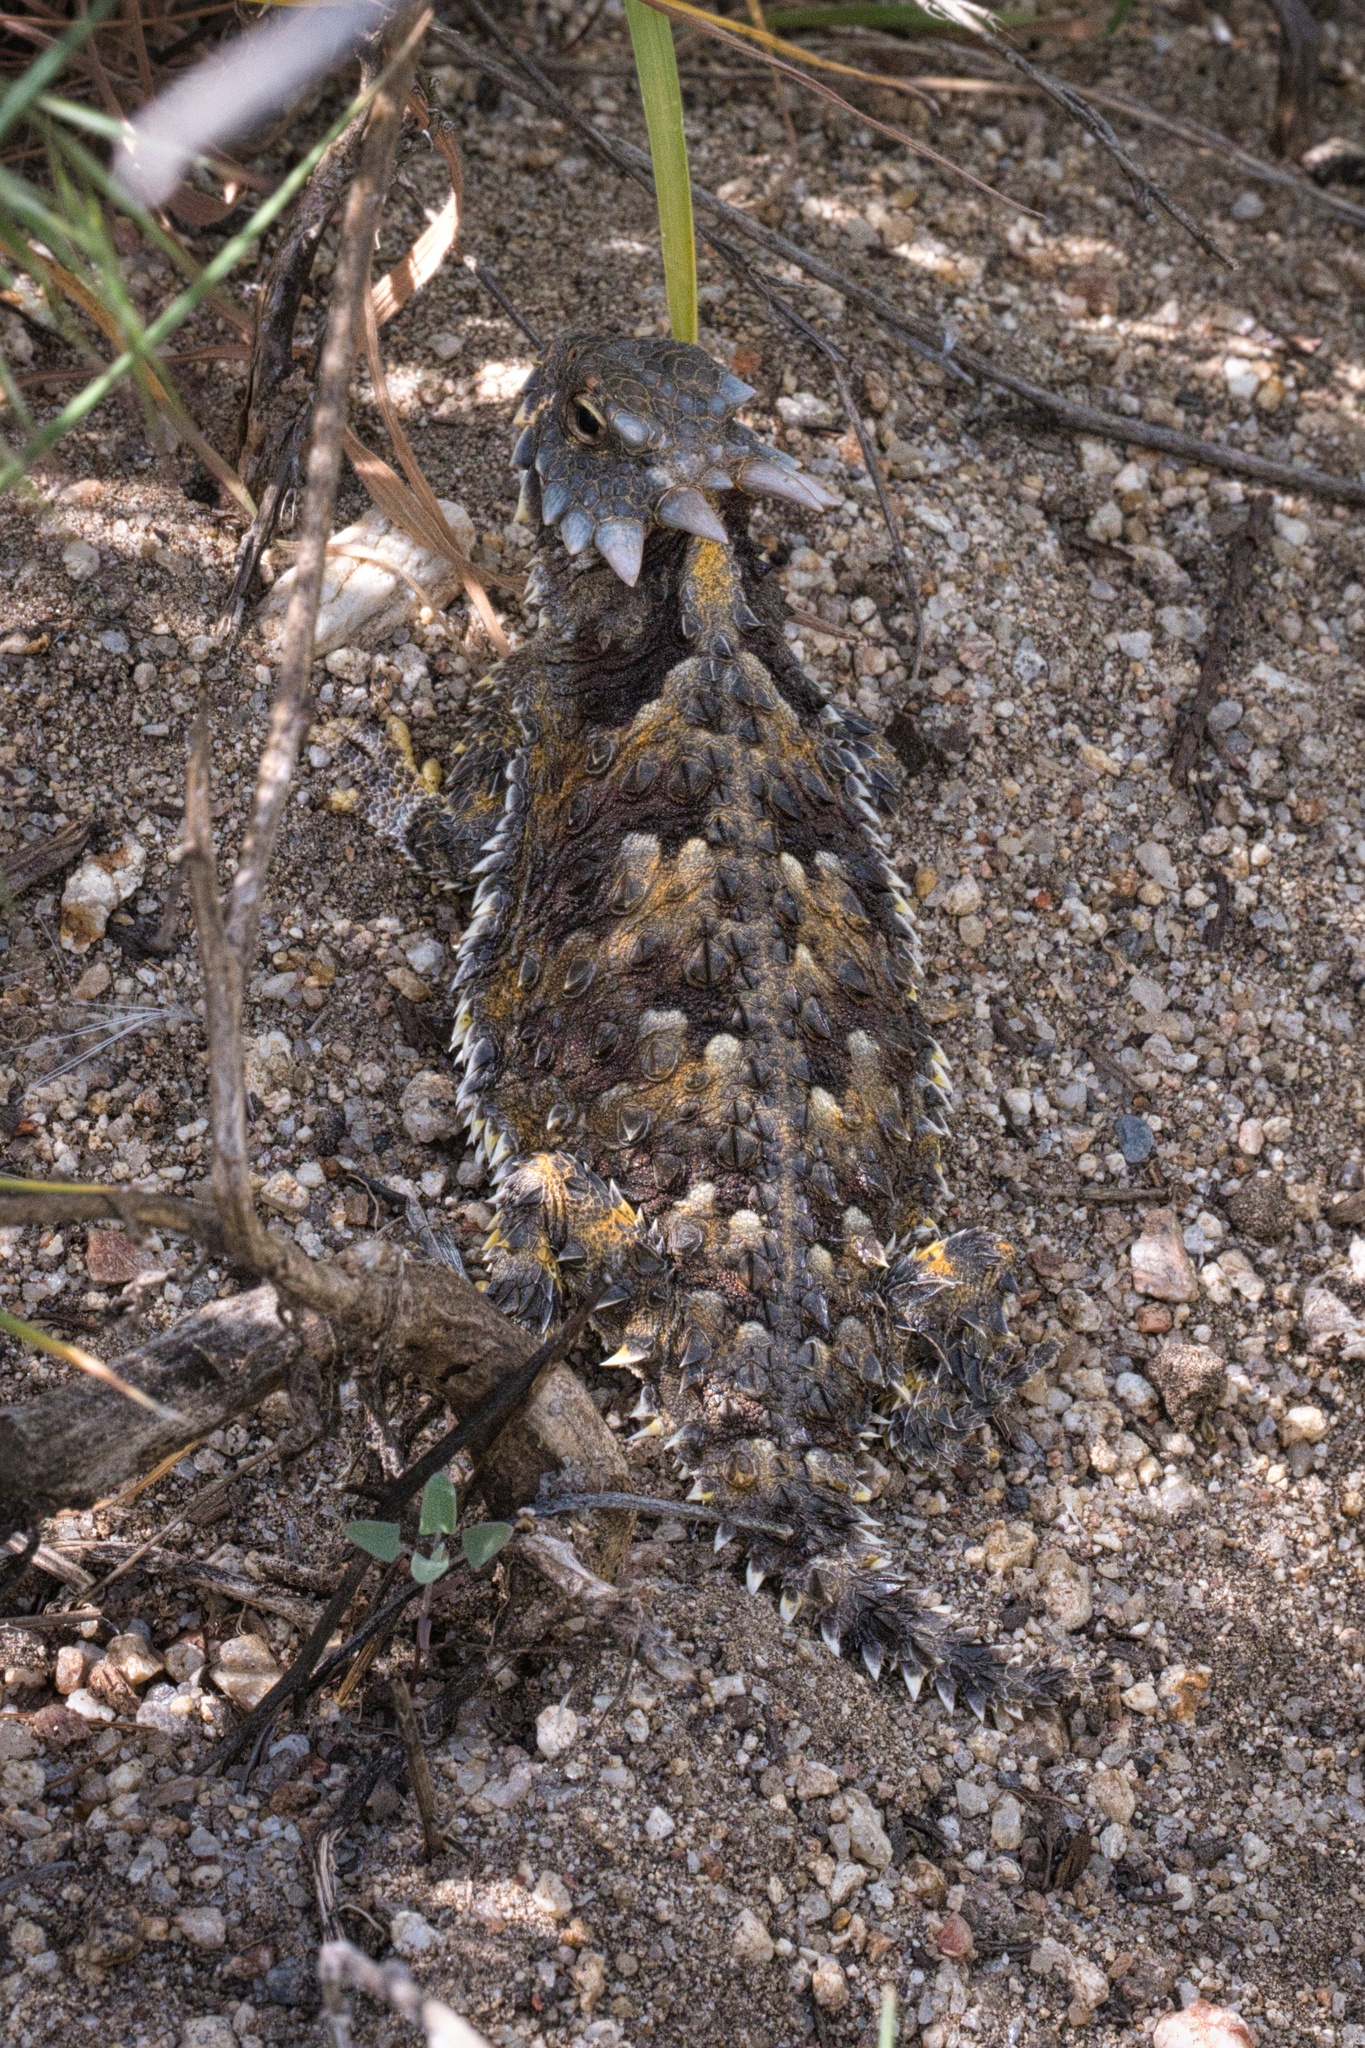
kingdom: Animalia
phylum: Chordata
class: Squamata
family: Phrynosomatidae
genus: Phrynosoma
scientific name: Phrynosoma blainvillii
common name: San diego horned lizard
